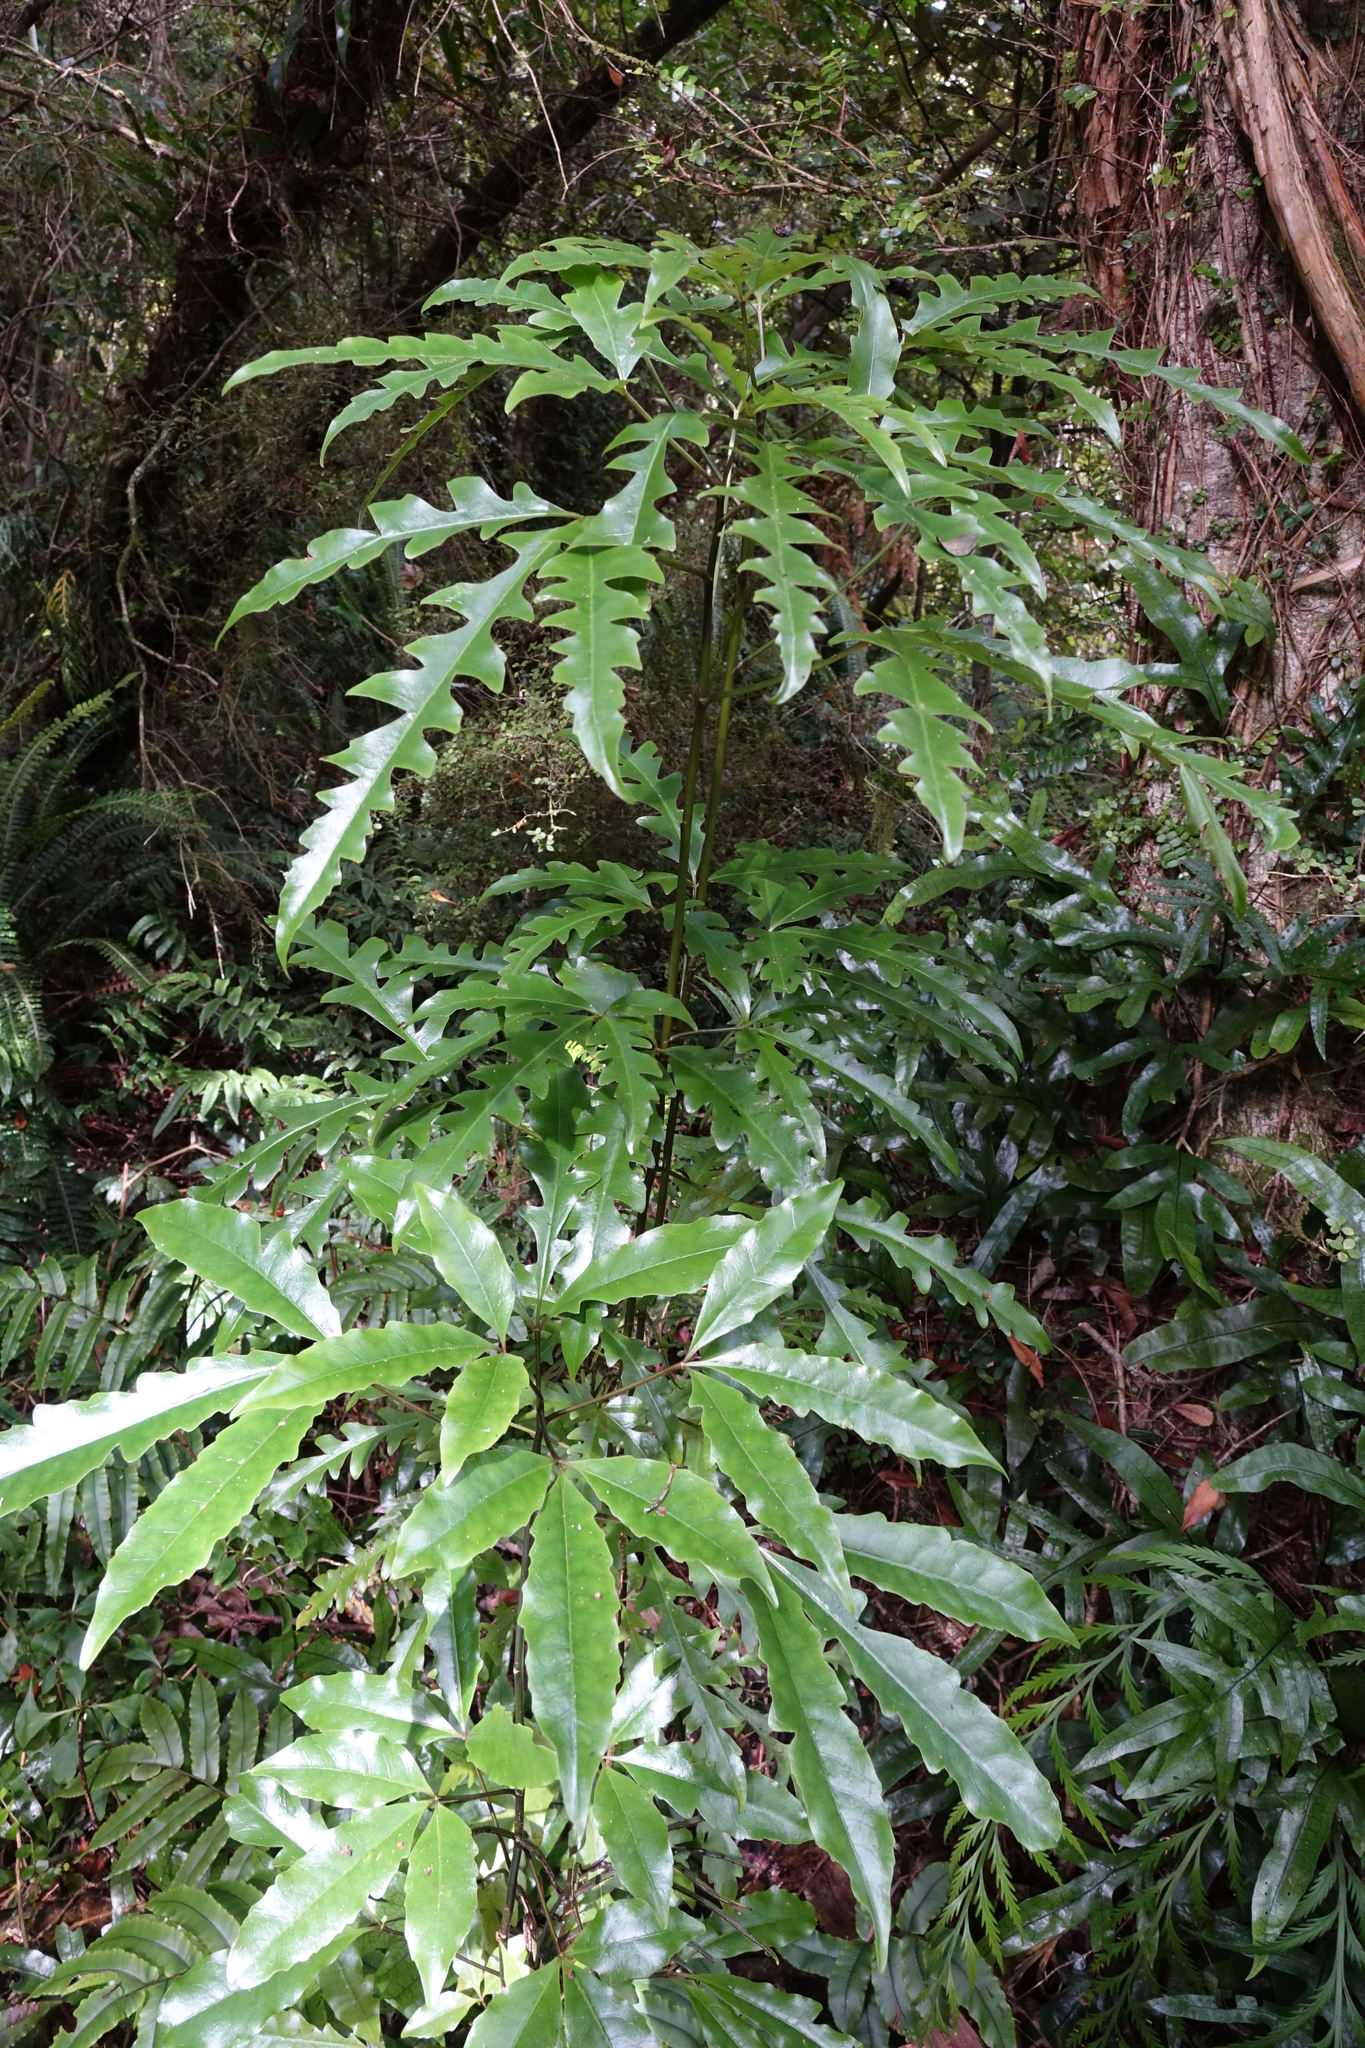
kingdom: Plantae
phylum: Tracheophyta
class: Magnoliopsida
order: Apiales
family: Araliaceae
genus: Raukaua
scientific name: Raukaua edgerleyi
